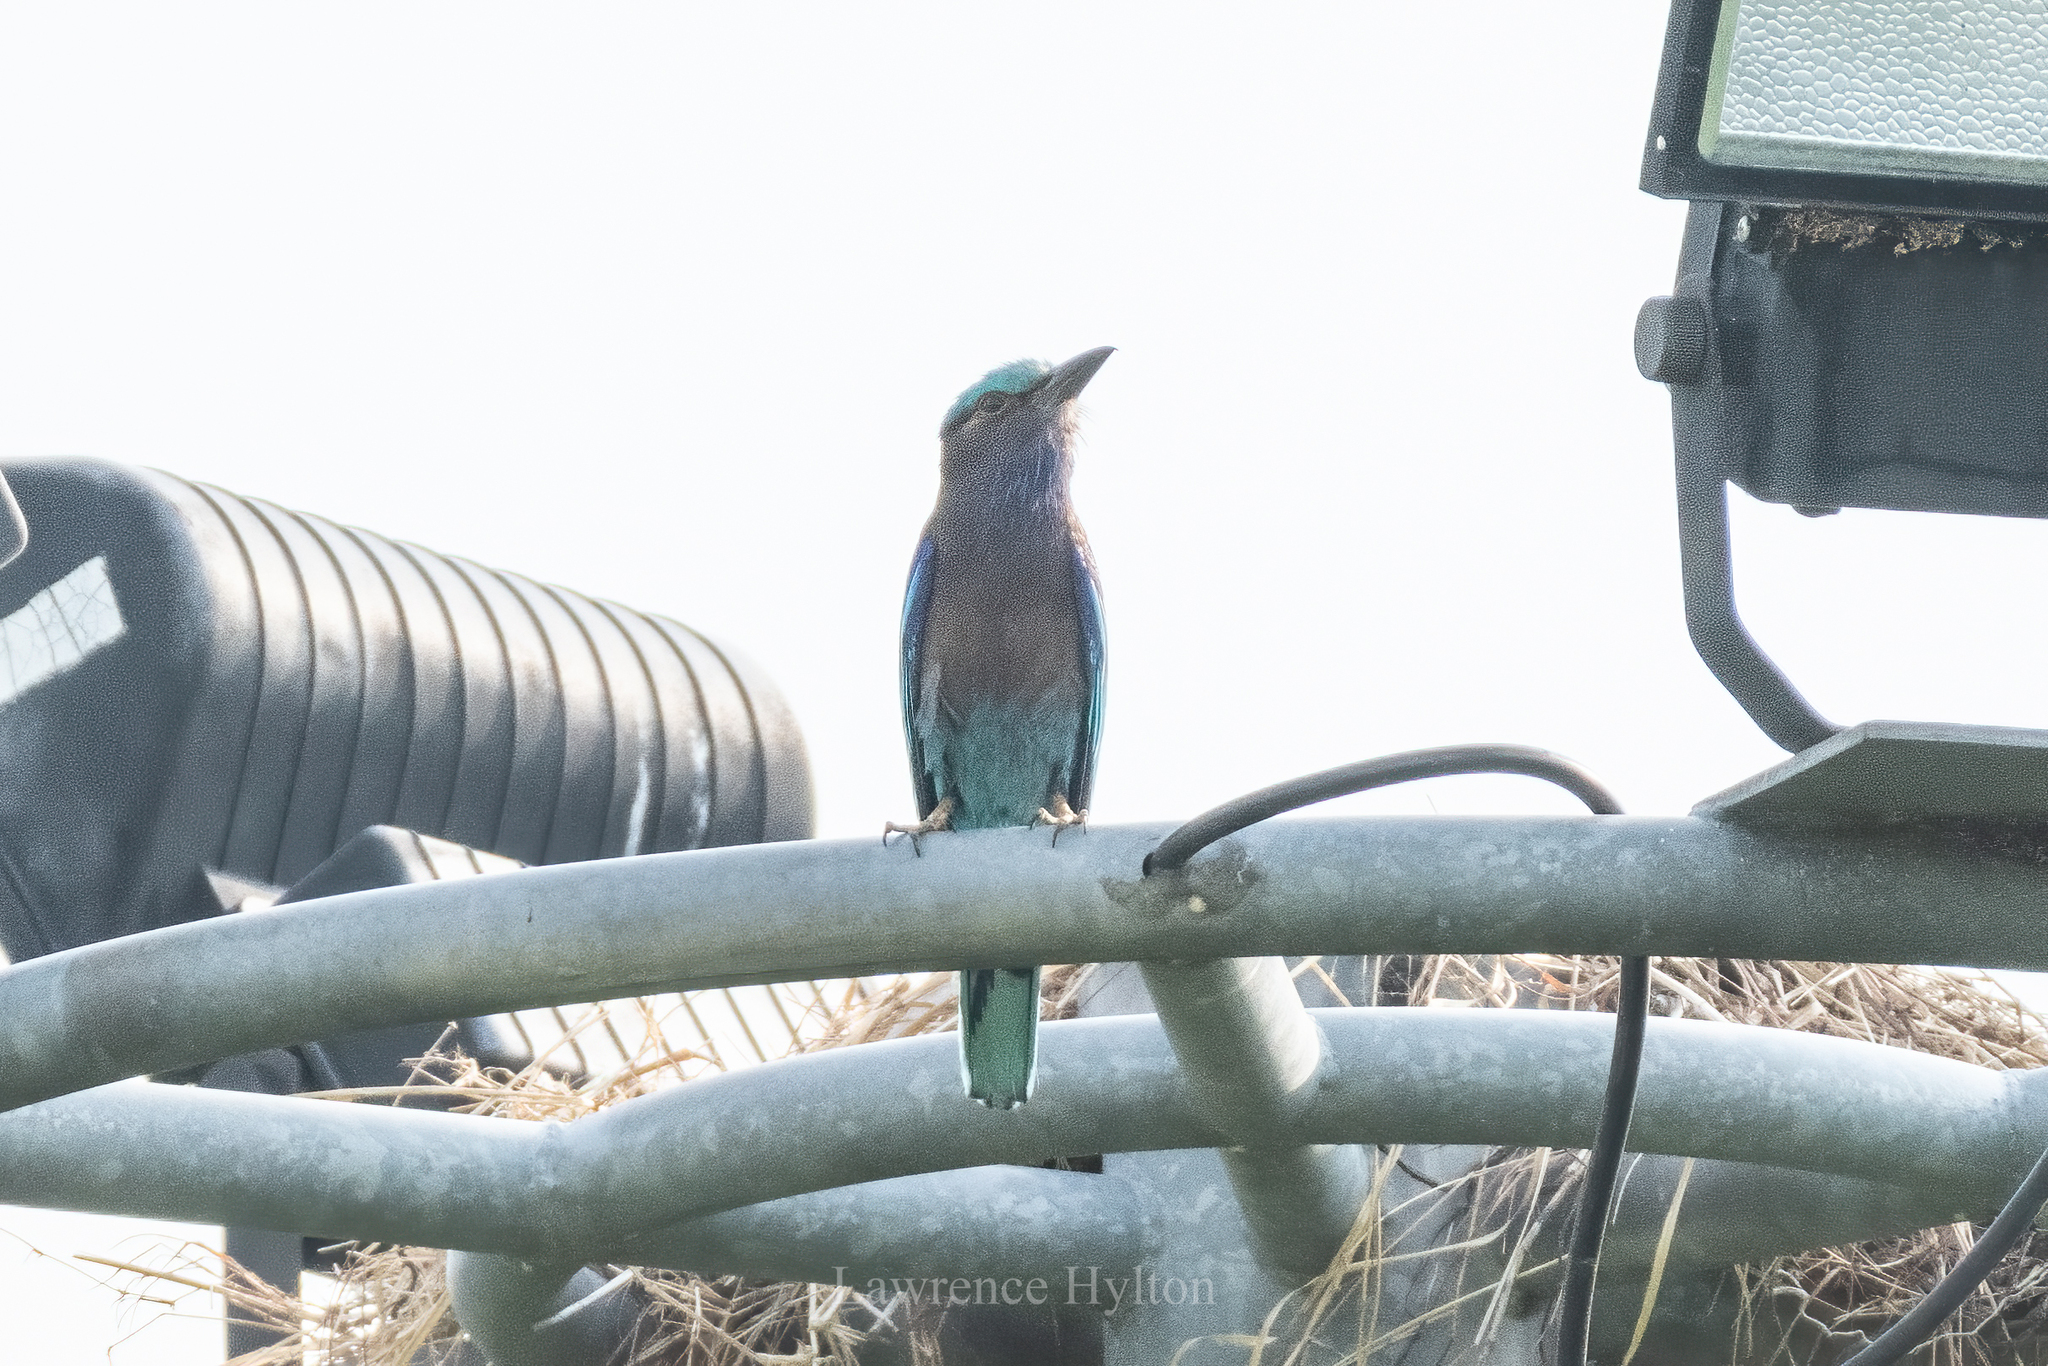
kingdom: Animalia
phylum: Chordata
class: Aves
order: Coraciiformes
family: Coraciidae
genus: Coracias
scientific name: Coracias affinis
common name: Indochinese roller
